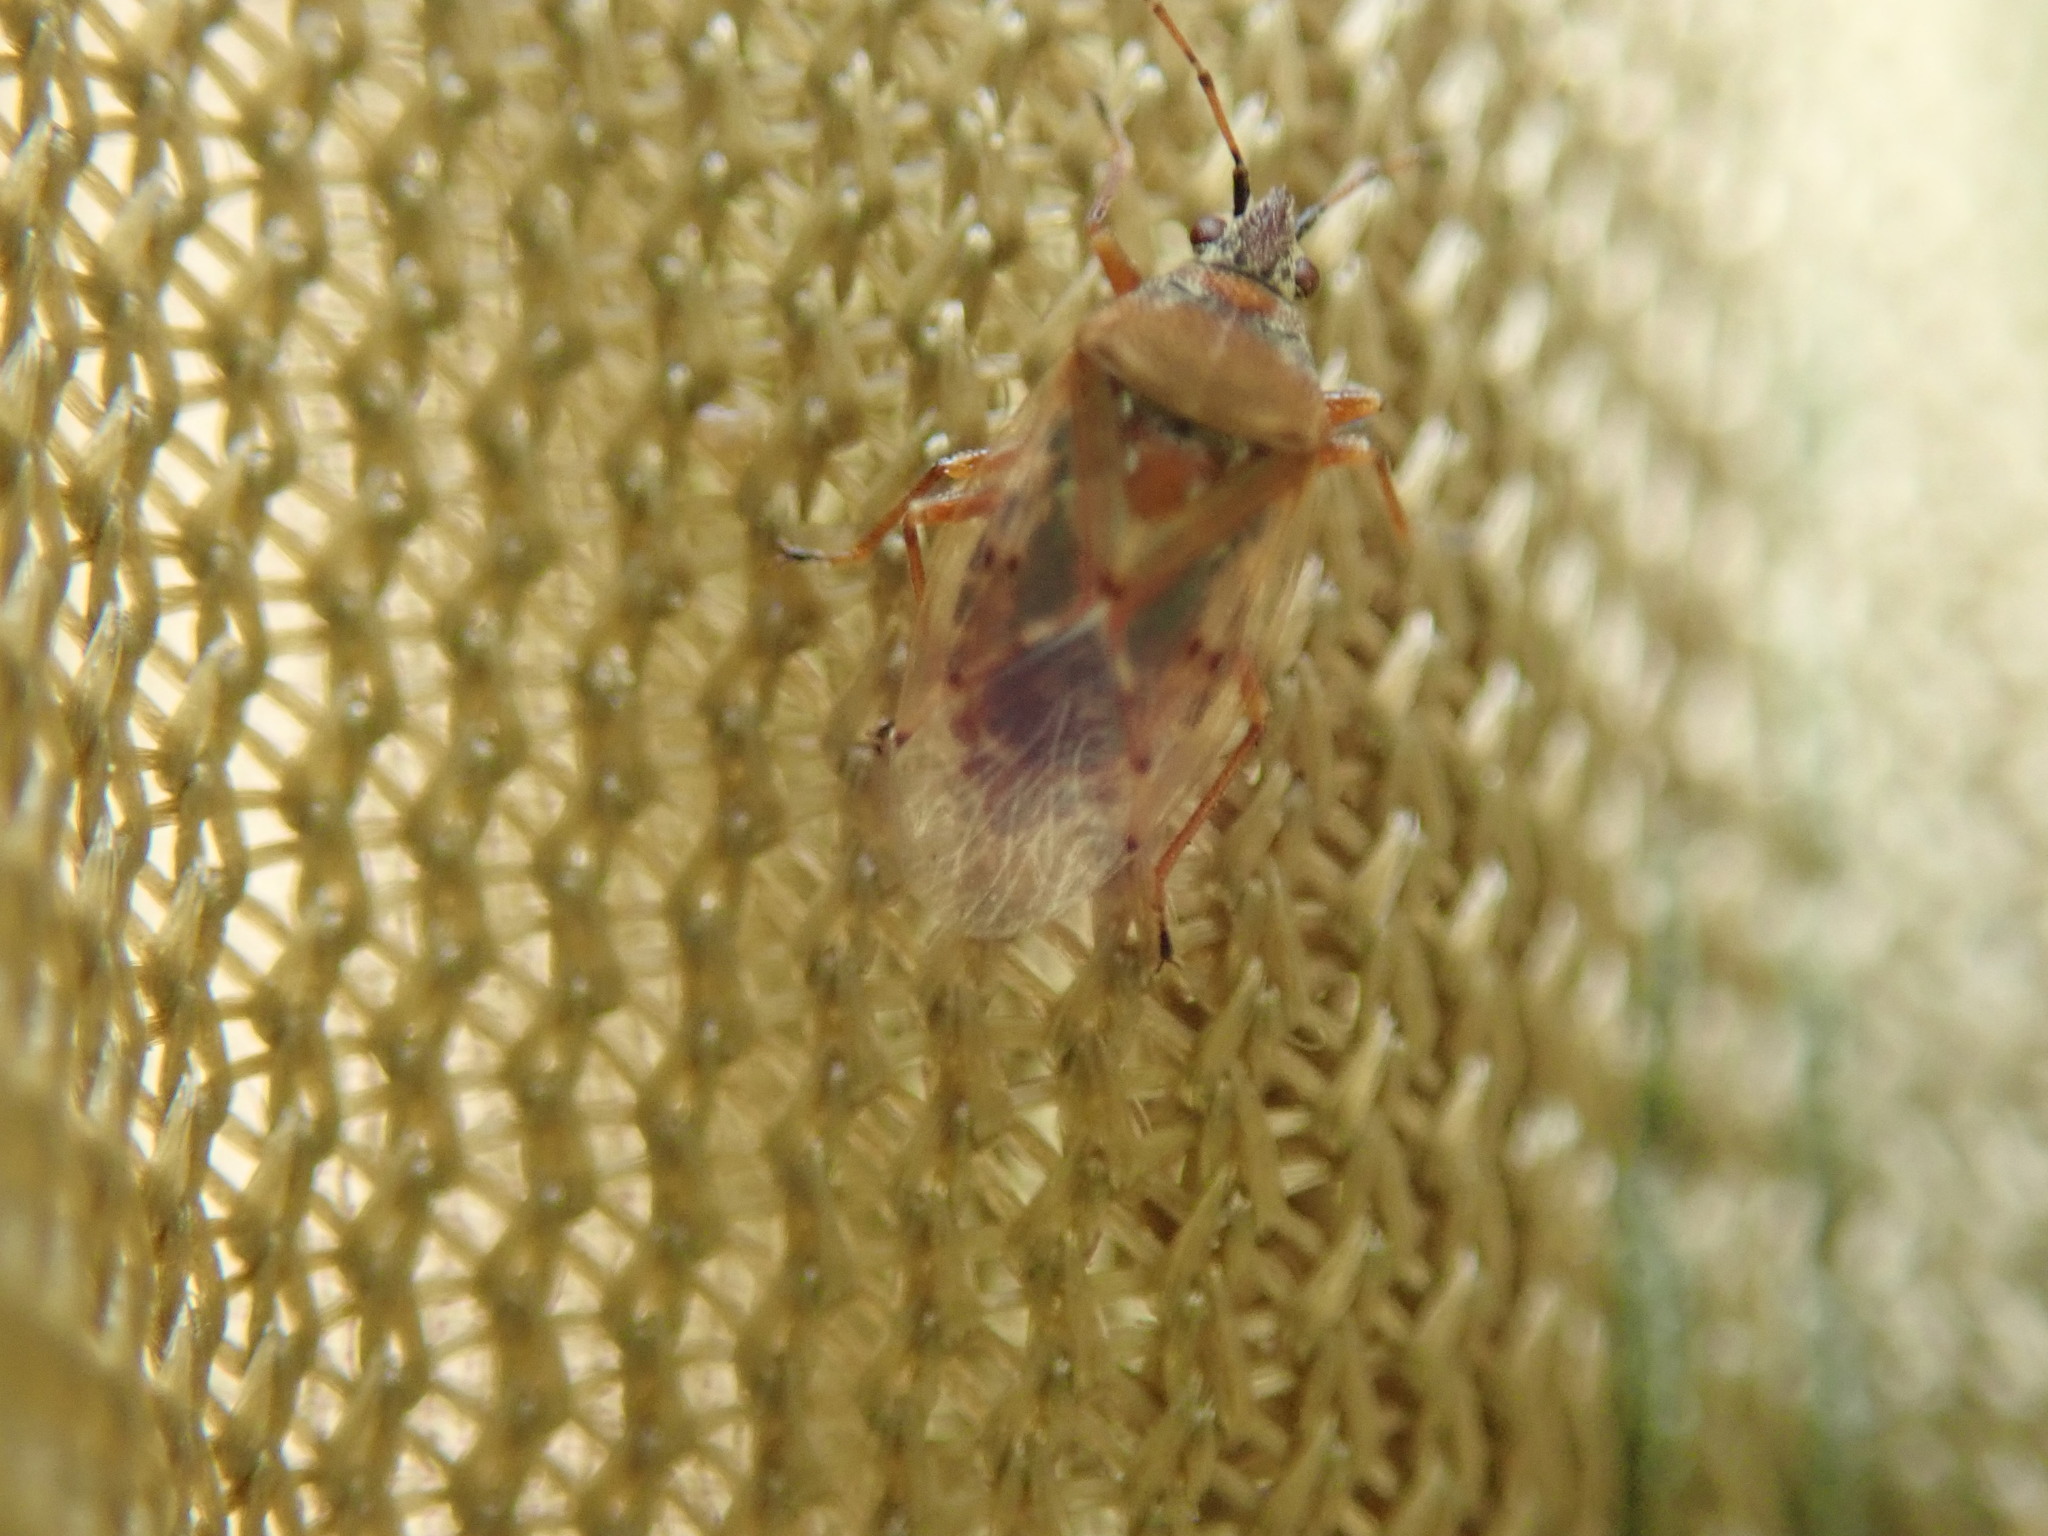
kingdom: Animalia
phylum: Arthropoda
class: Insecta
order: Hemiptera
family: Lygaeidae
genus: Kleidocerys
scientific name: Kleidocerys resedae
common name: Birch catkin bug
